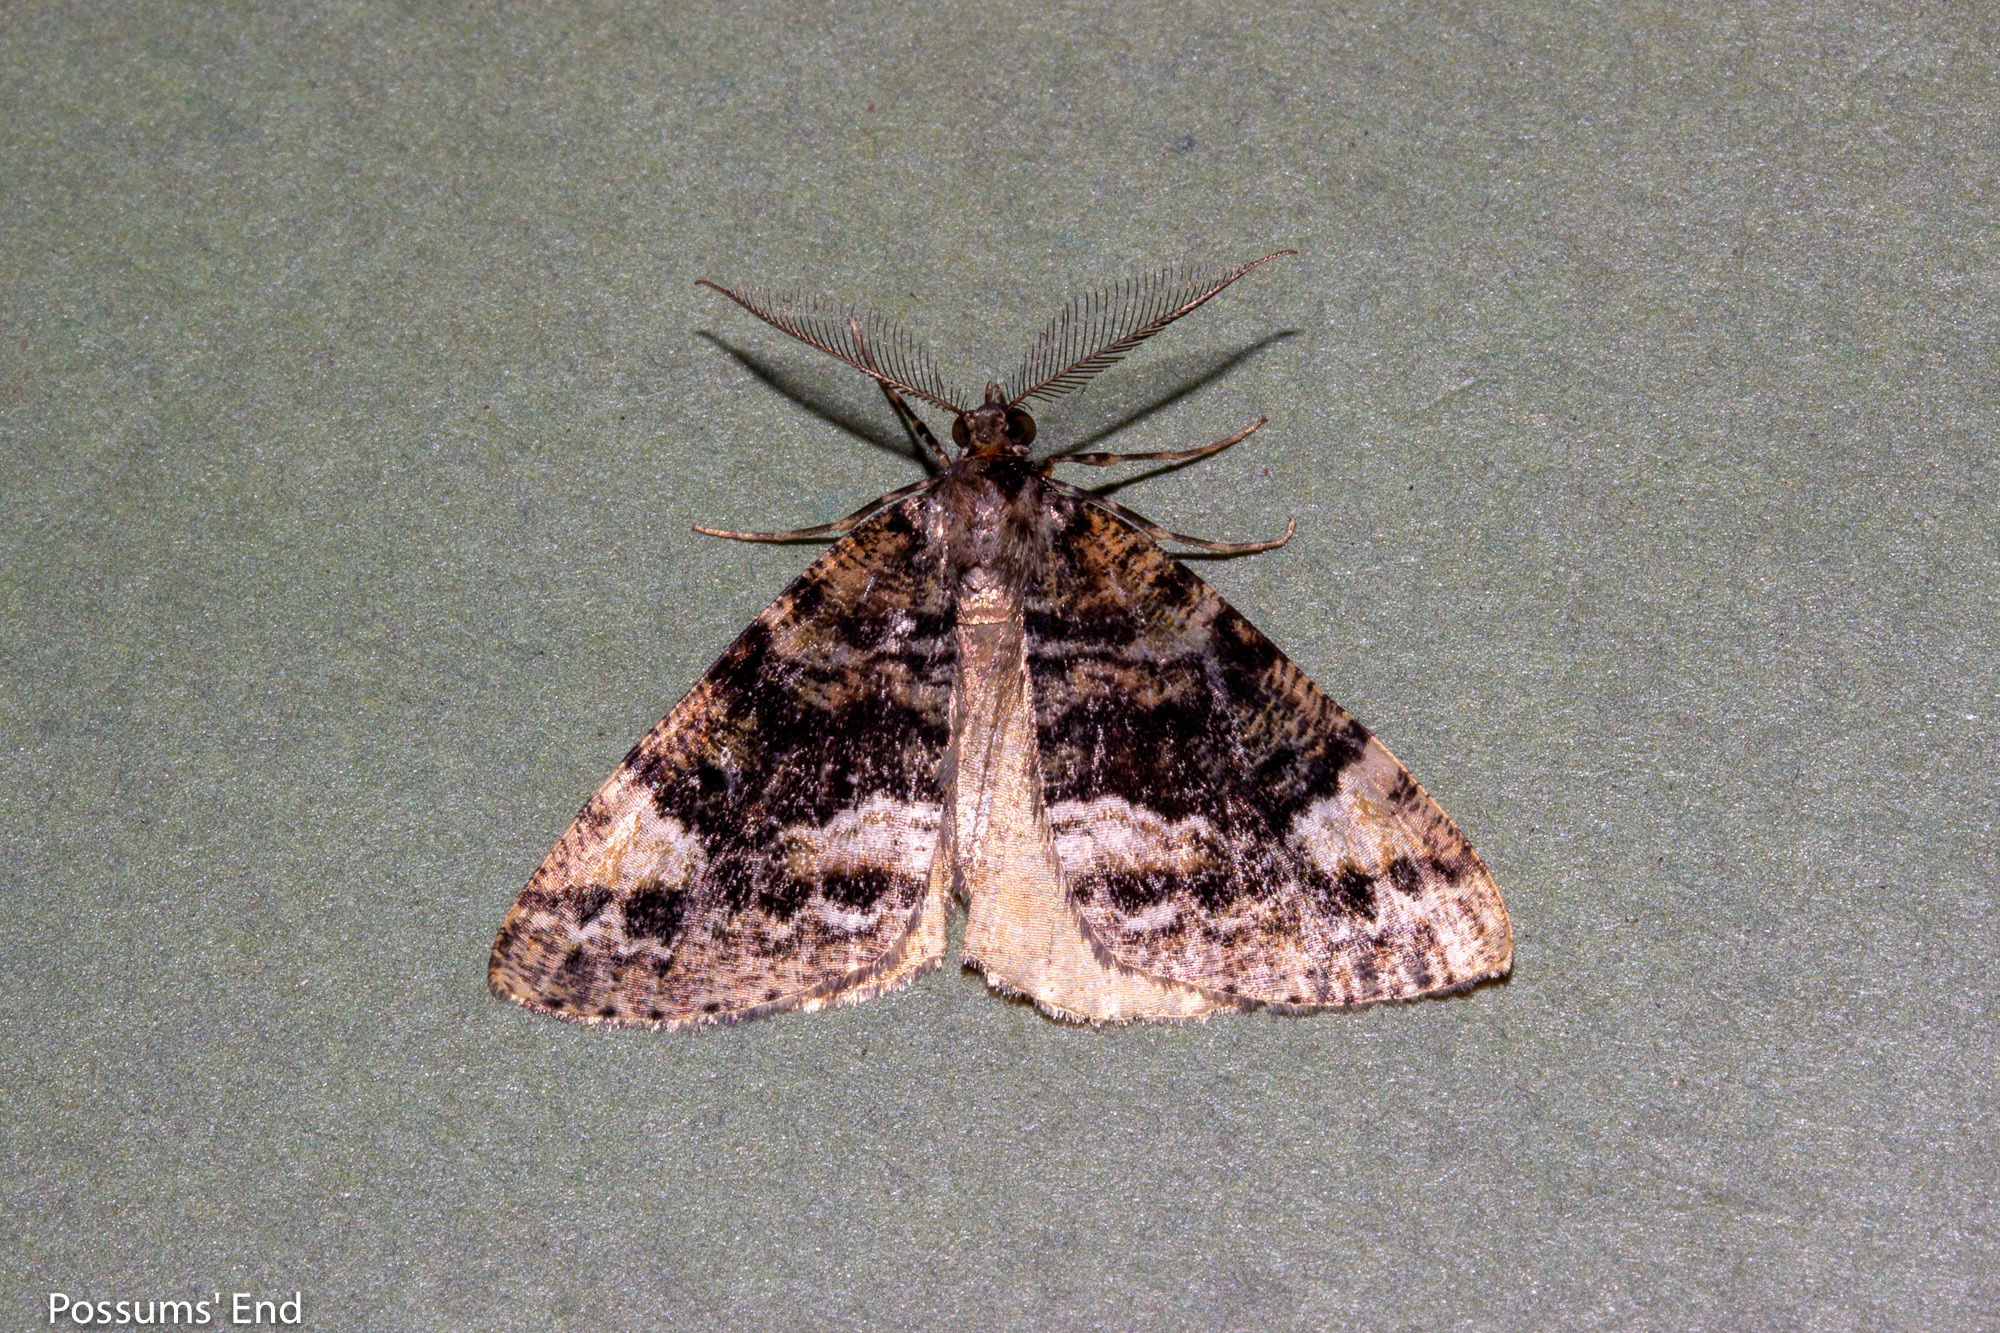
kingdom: Animalia
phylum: Arthropoda
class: Insecta
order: Lepidoptera
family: Geometridae
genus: Pseudocoremia
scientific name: Pseudocoremia productata
